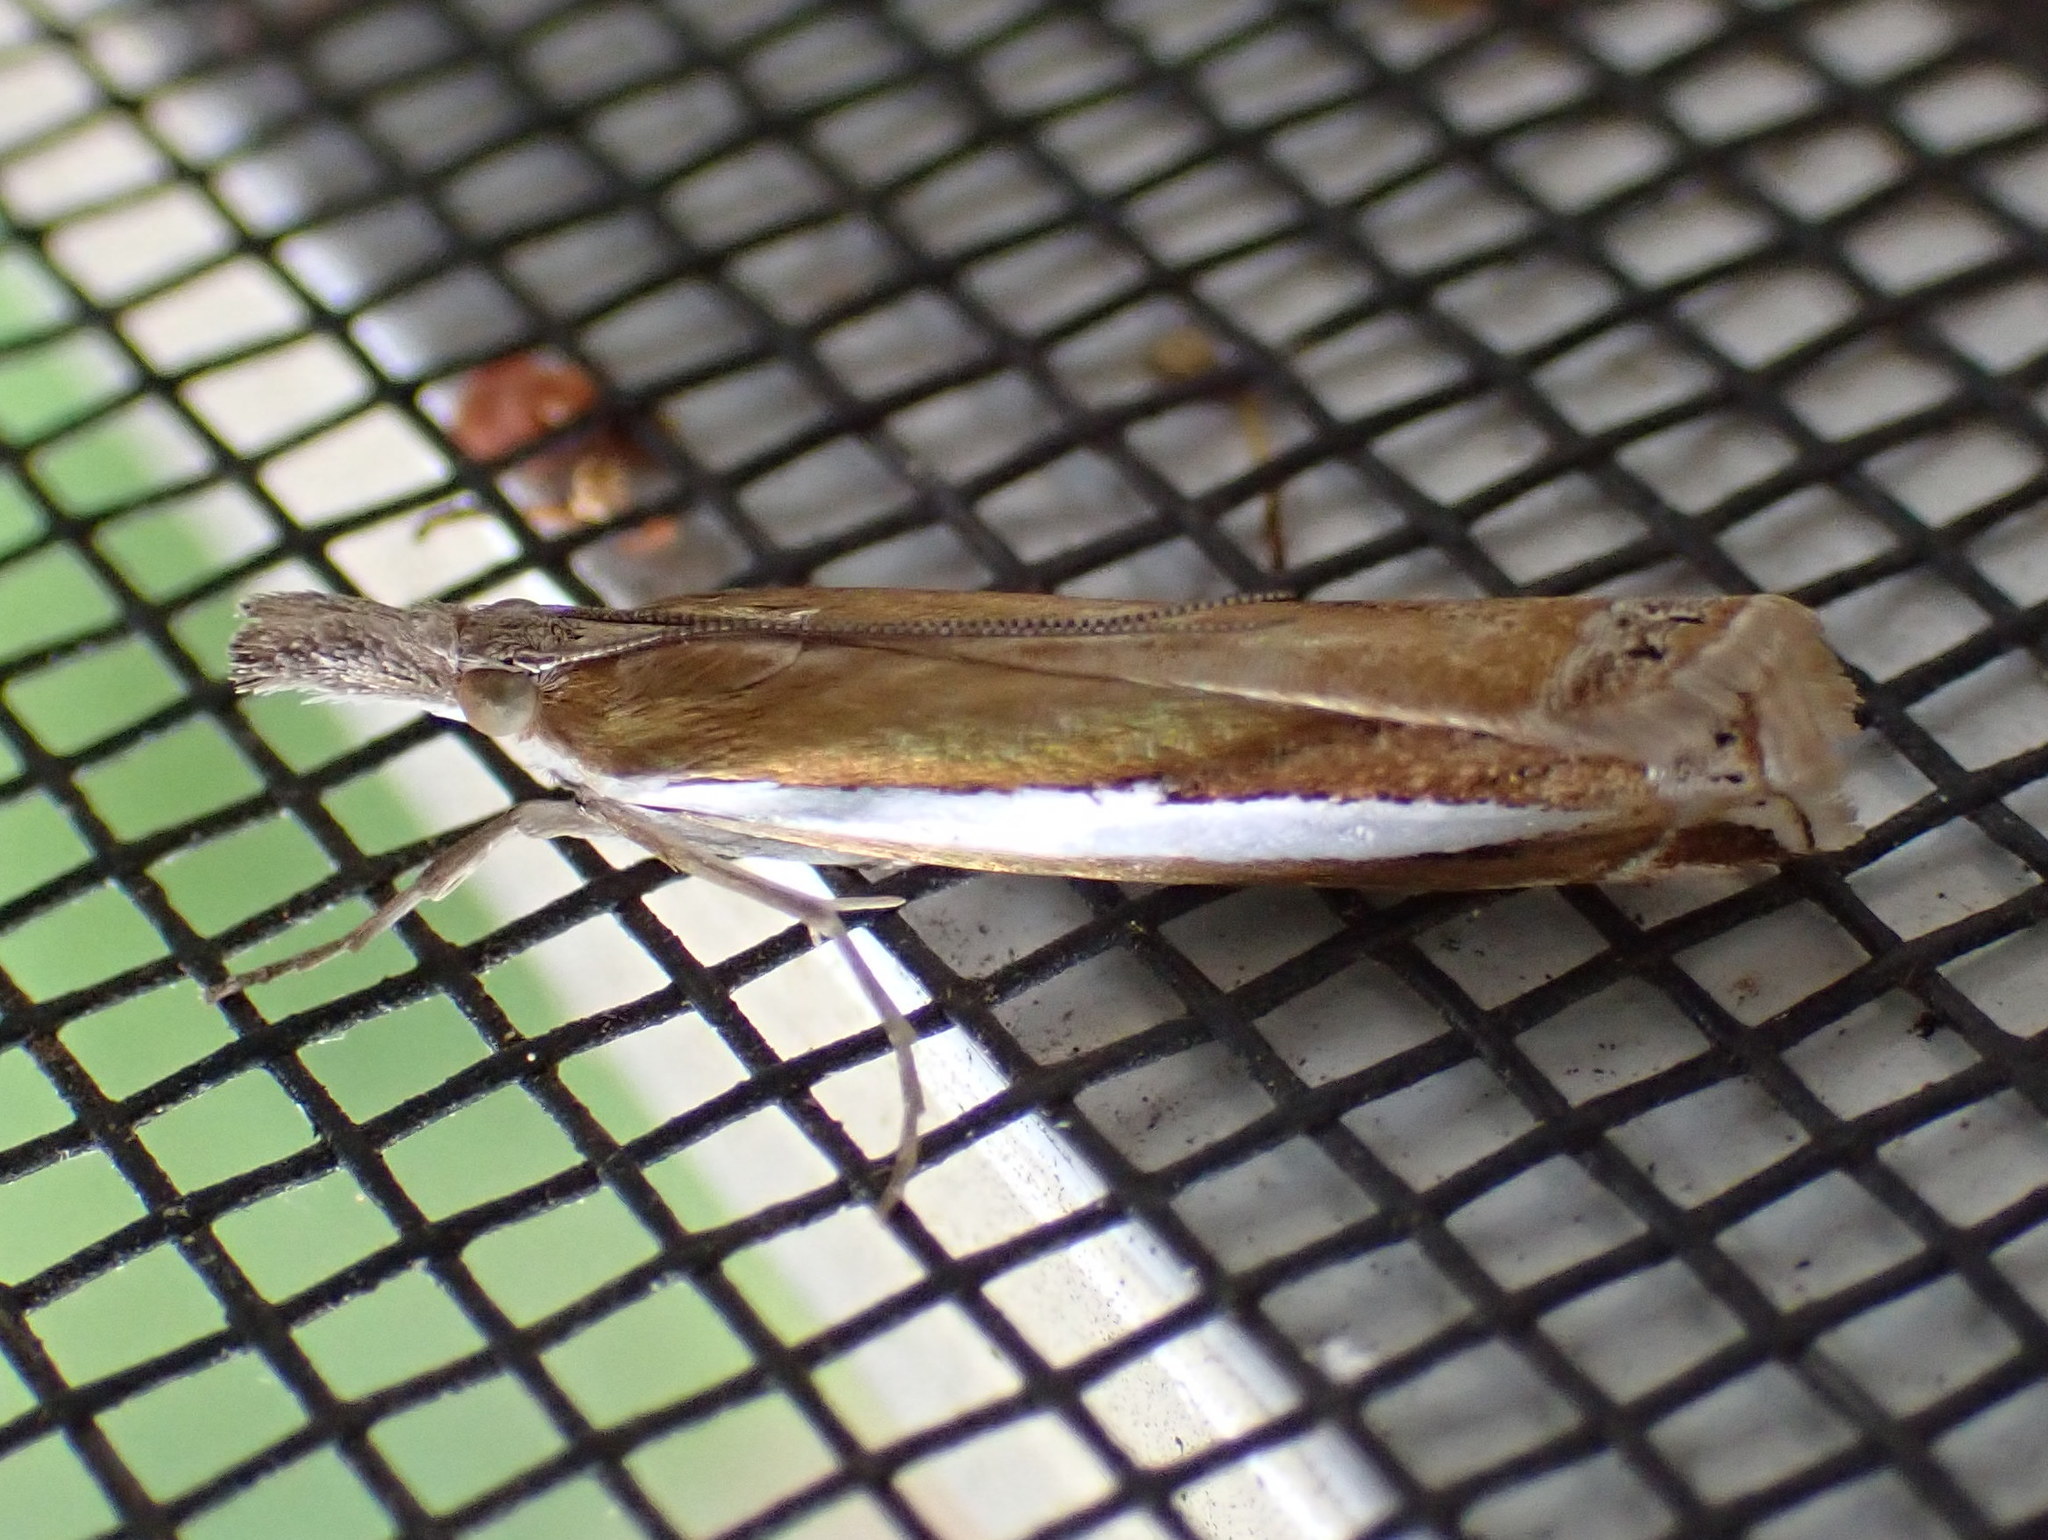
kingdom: Animalia
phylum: Arthropoda
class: Insecta
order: Lepidoptera
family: Crambidae
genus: Crambus
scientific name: Crambus praefectellus
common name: Common grass-veneer
